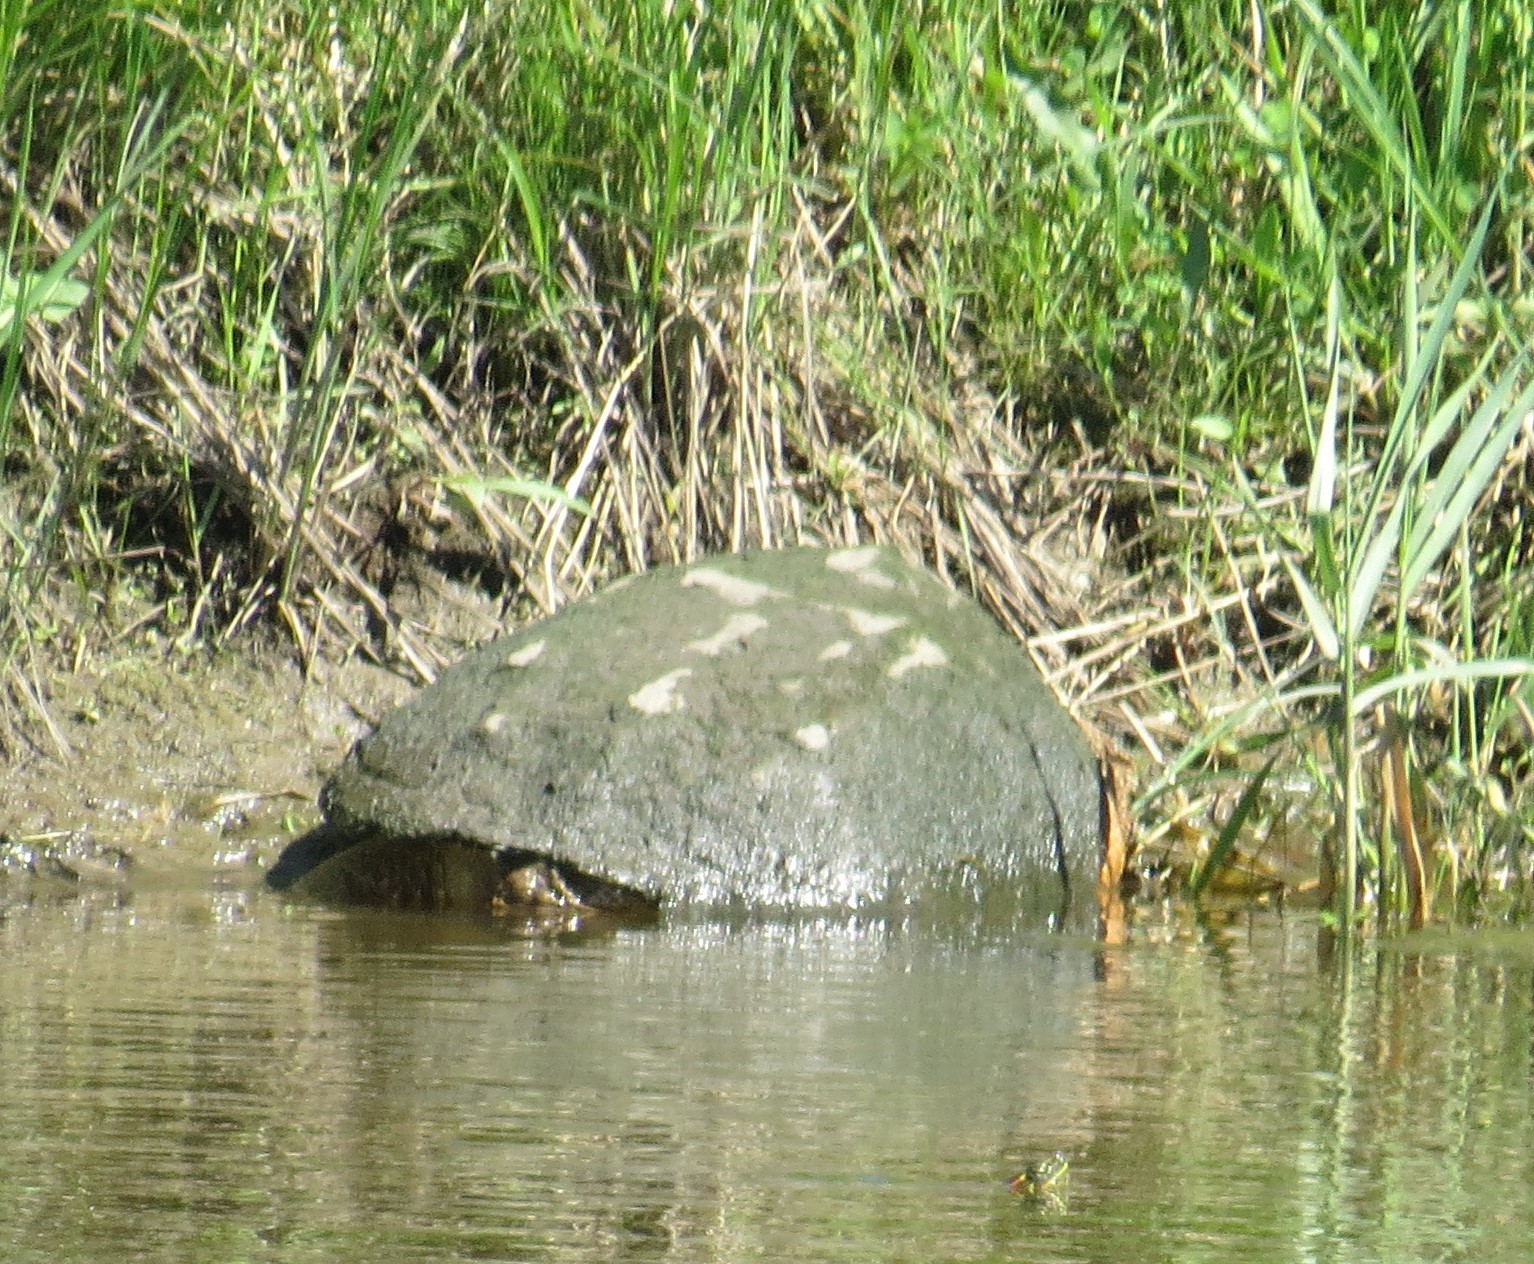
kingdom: Animalia
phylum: Chordata
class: Testudines
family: Chelydridae
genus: Chelydra
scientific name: Chelydra serpentina
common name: Common snapping turtle
